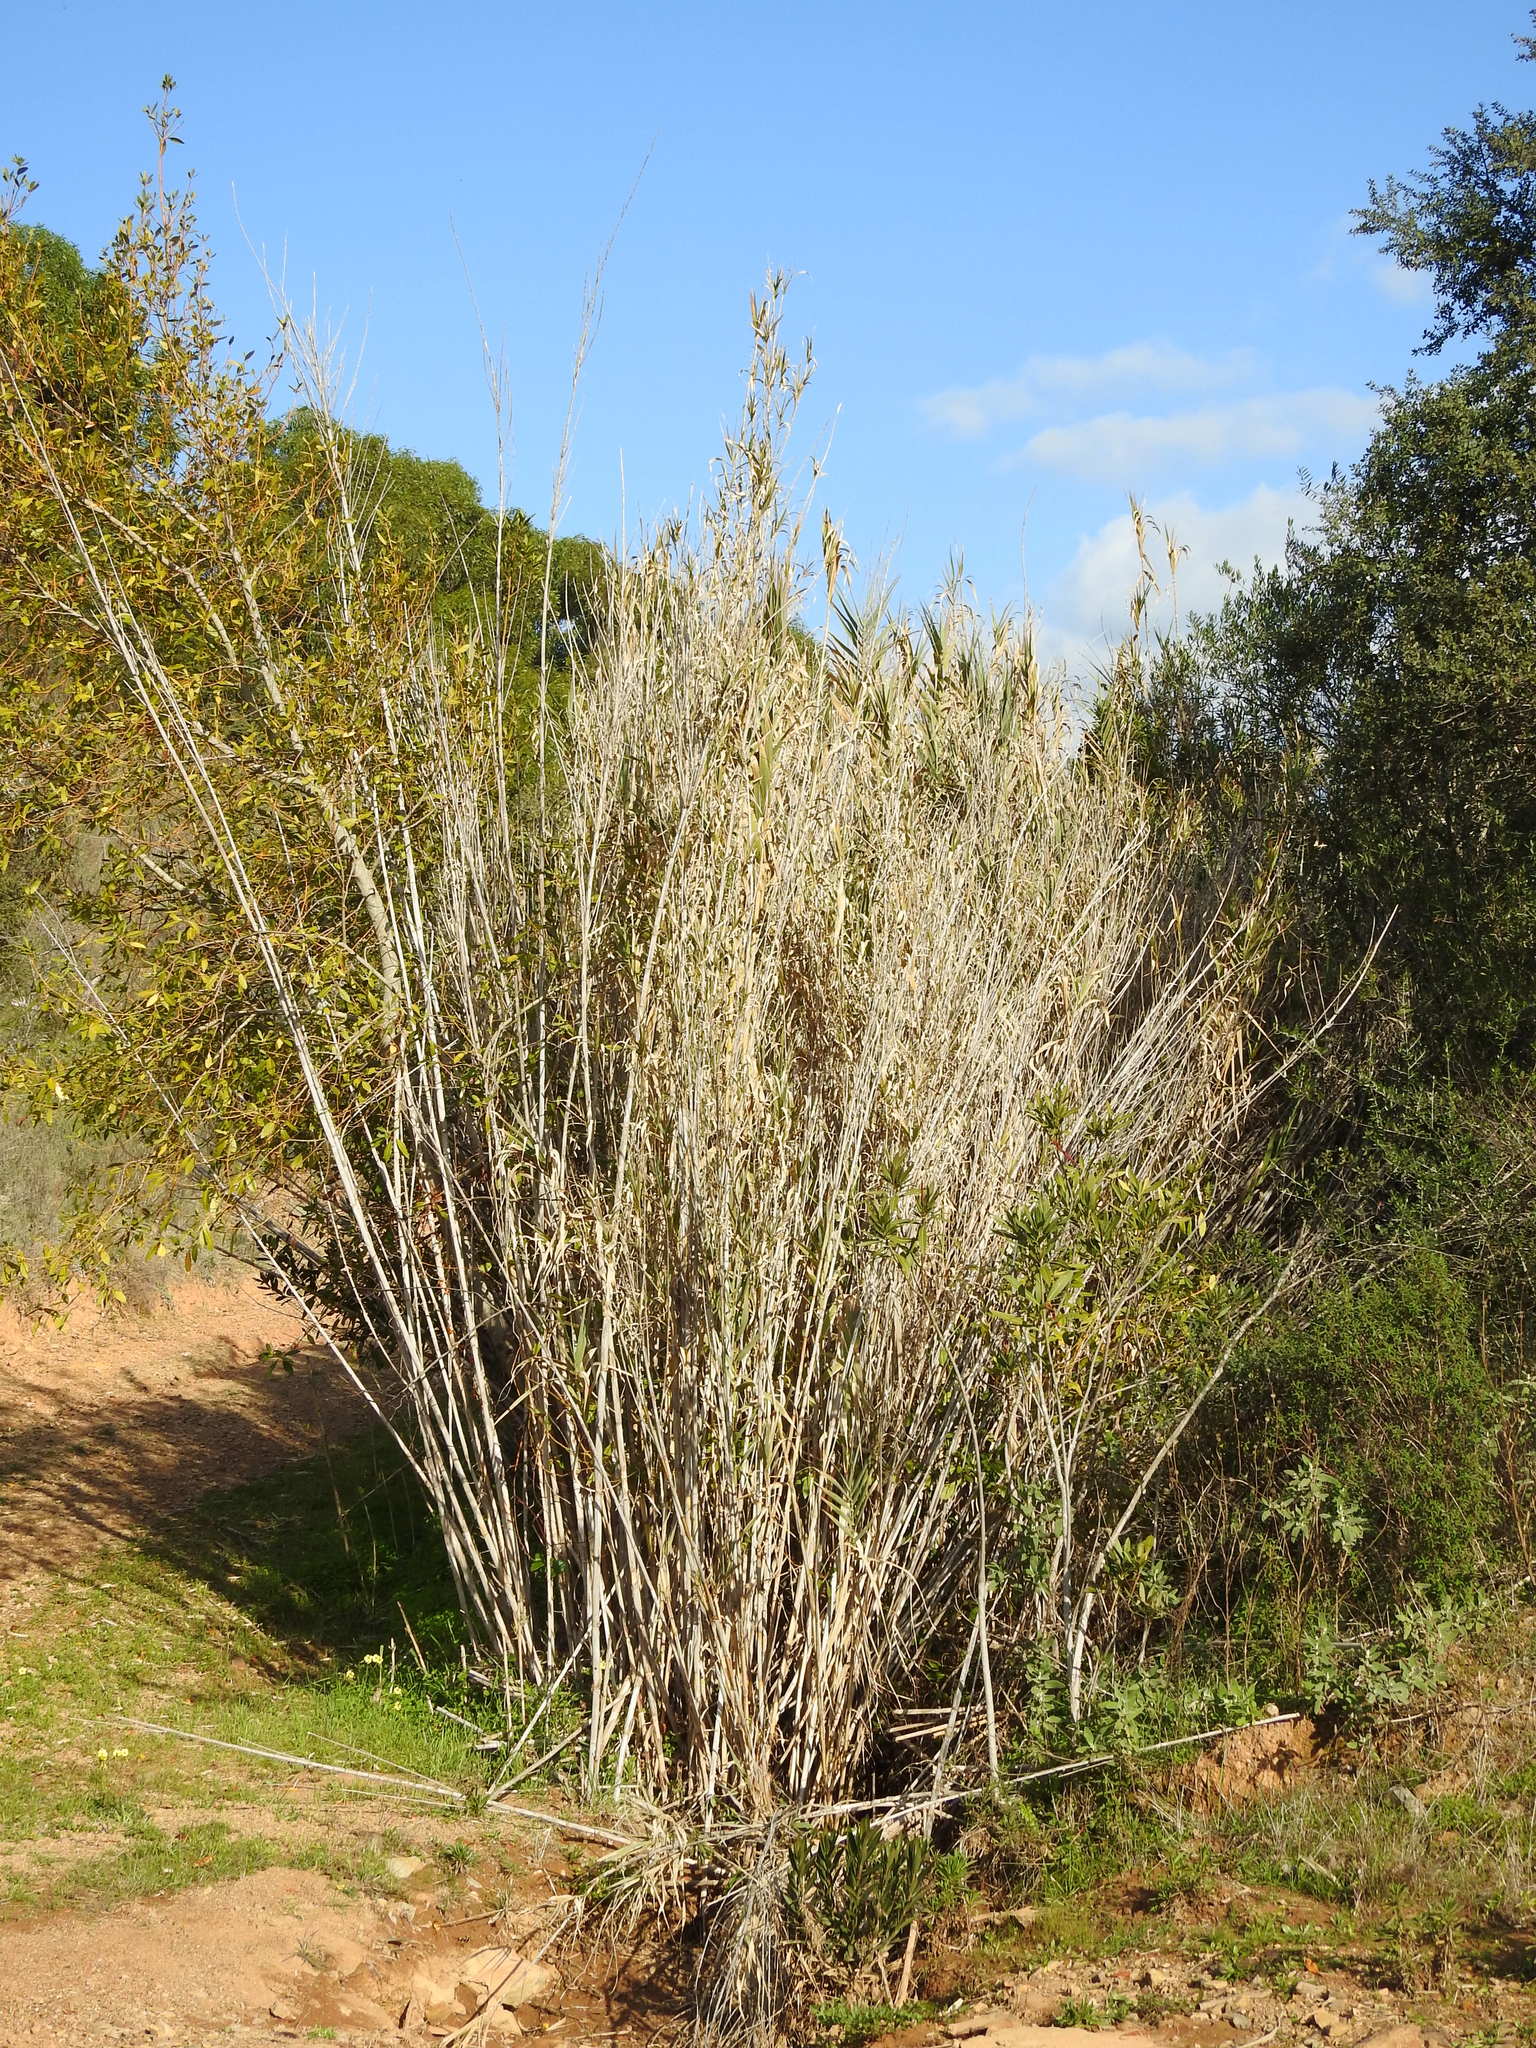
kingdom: Plantae
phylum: Tracheophyta
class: Liliopsida
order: Poales
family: Poaceae
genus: Arundo
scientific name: Arundo donax
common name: Giant reed
